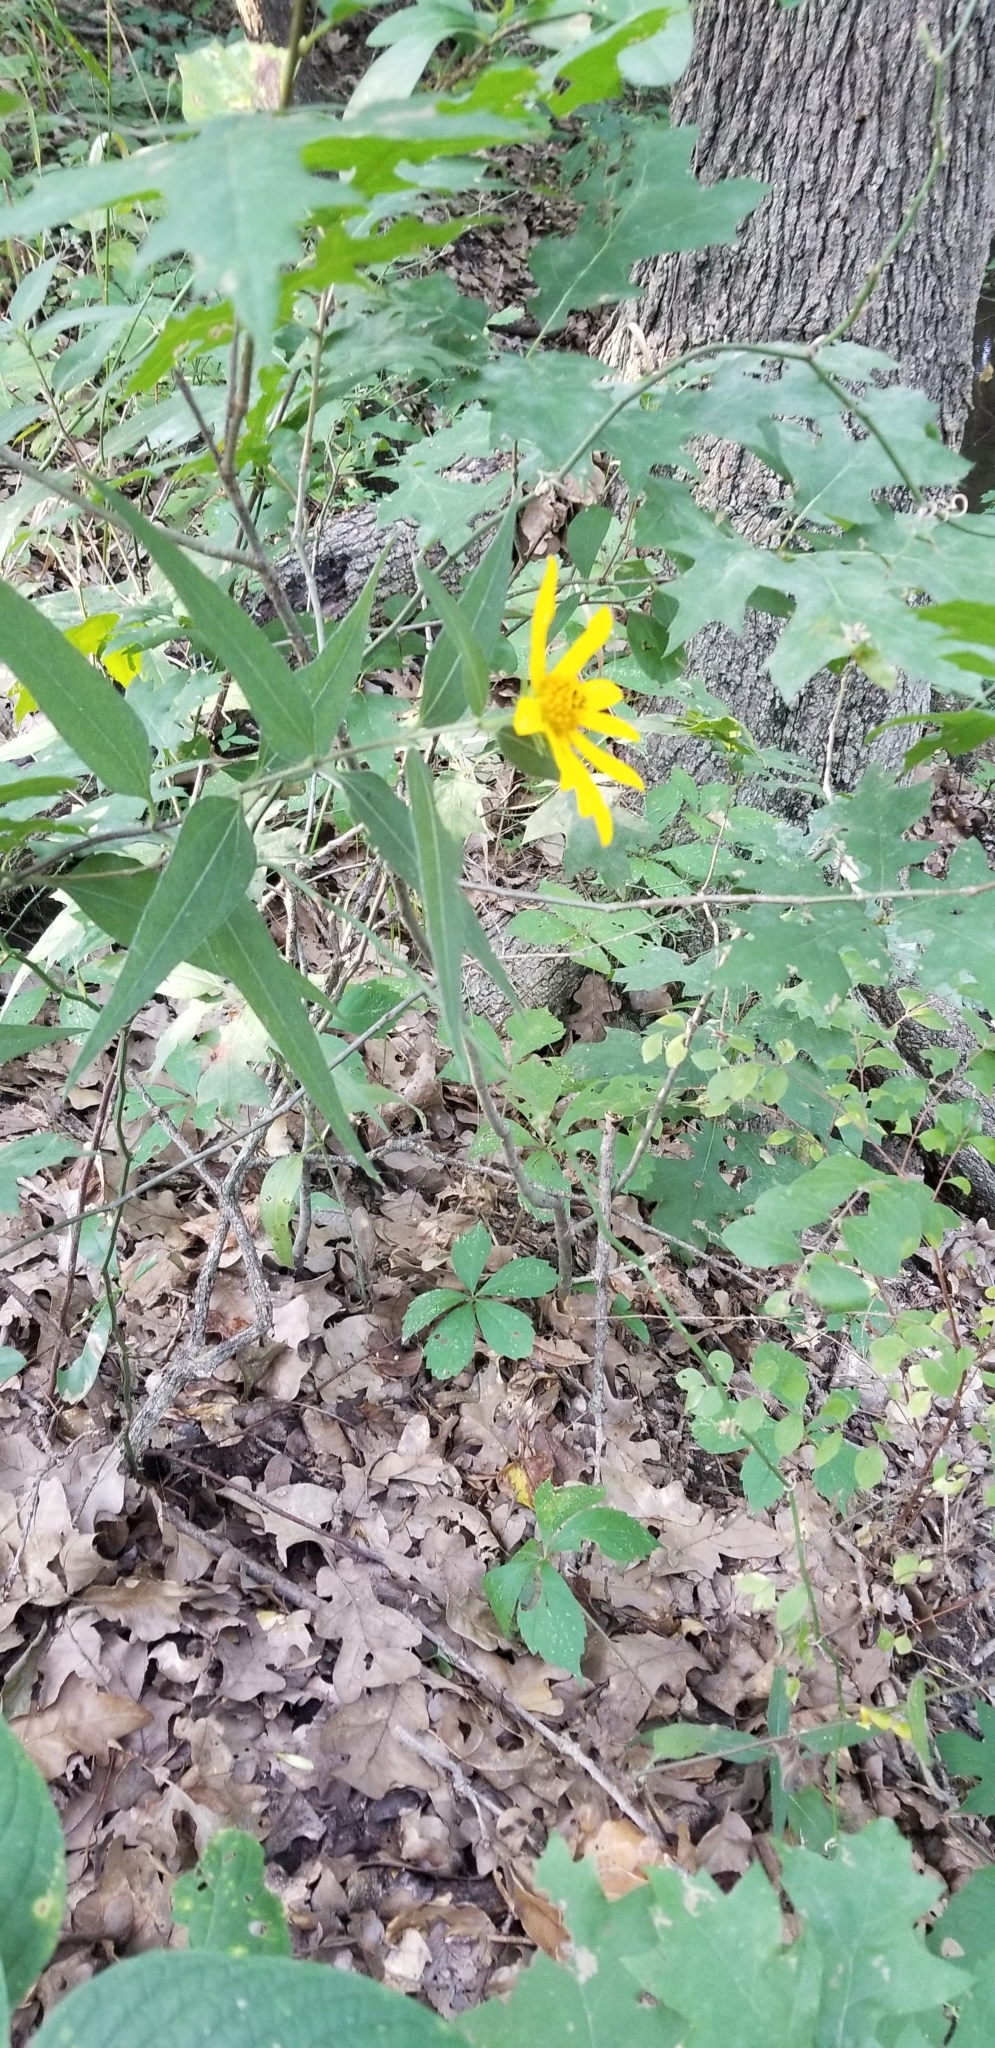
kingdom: Plantae
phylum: Tracheophyta
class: Magnoliopsida
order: Asterales
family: Asteraceae
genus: Helianthus
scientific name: Helianthus hirsutus
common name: Hairy sunflower
